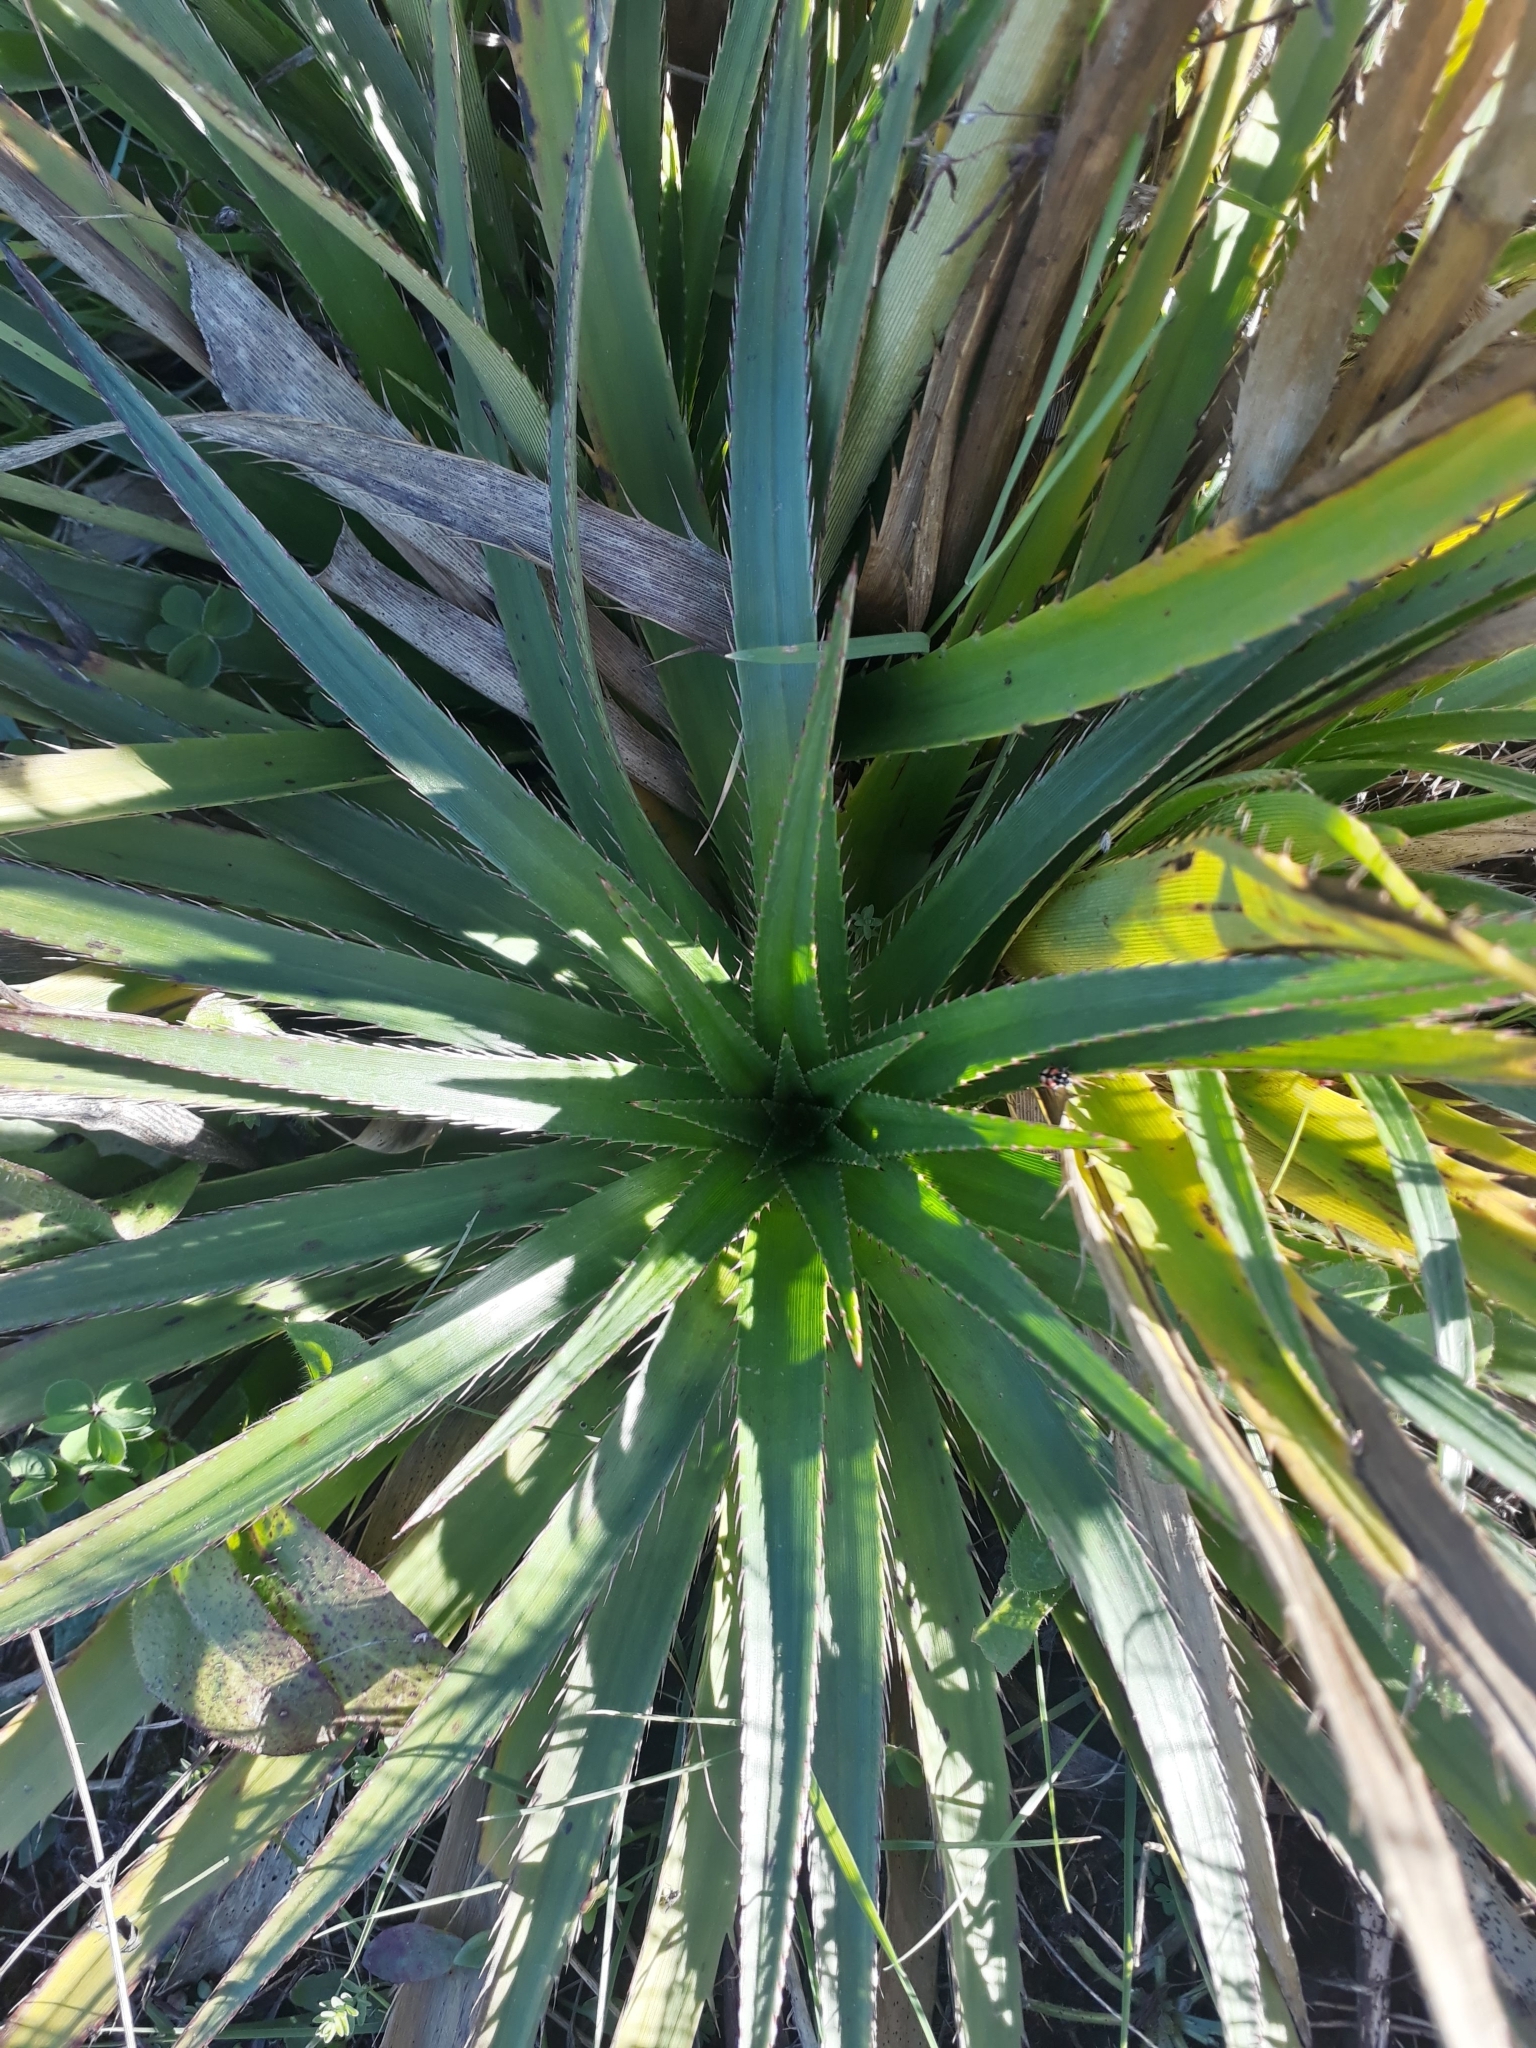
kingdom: Plantae
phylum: Tracheophyta
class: Magnoliopsida
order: Apiales
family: Apiaceae
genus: Eryngium
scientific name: Eryngium humboldtii
